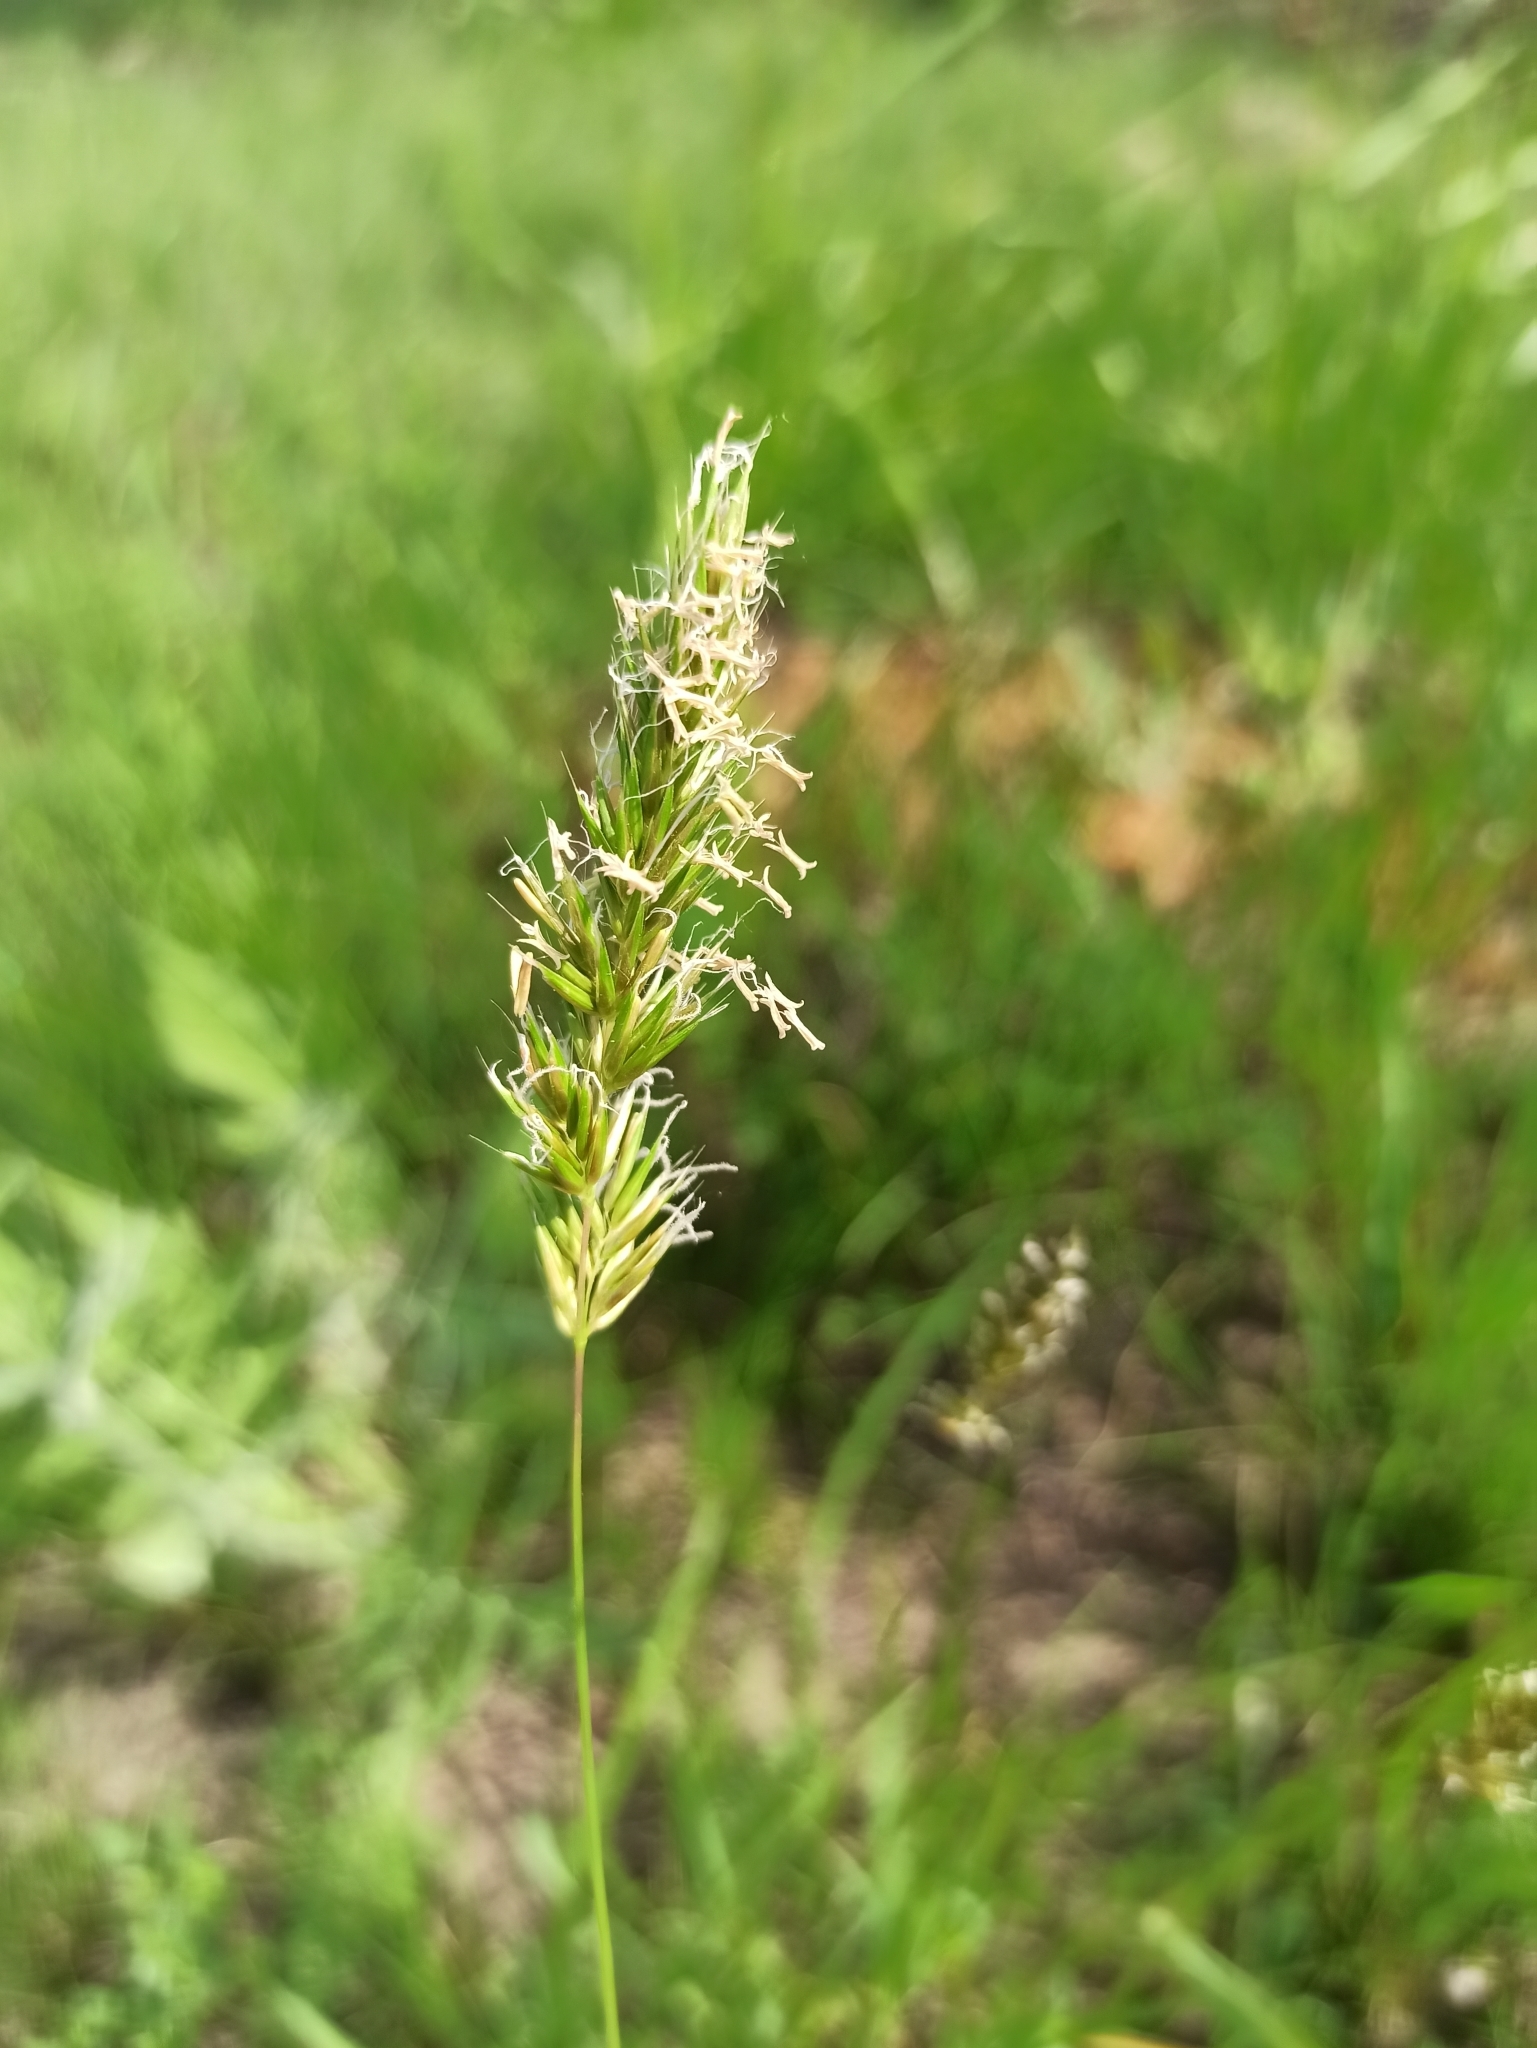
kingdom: Plantae
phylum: Tracheophyta
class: Liliopsida
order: Poales
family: Poaceae
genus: Anthoxanthum
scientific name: Anthoxanthum odoratum
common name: Sweet vernalgrass
